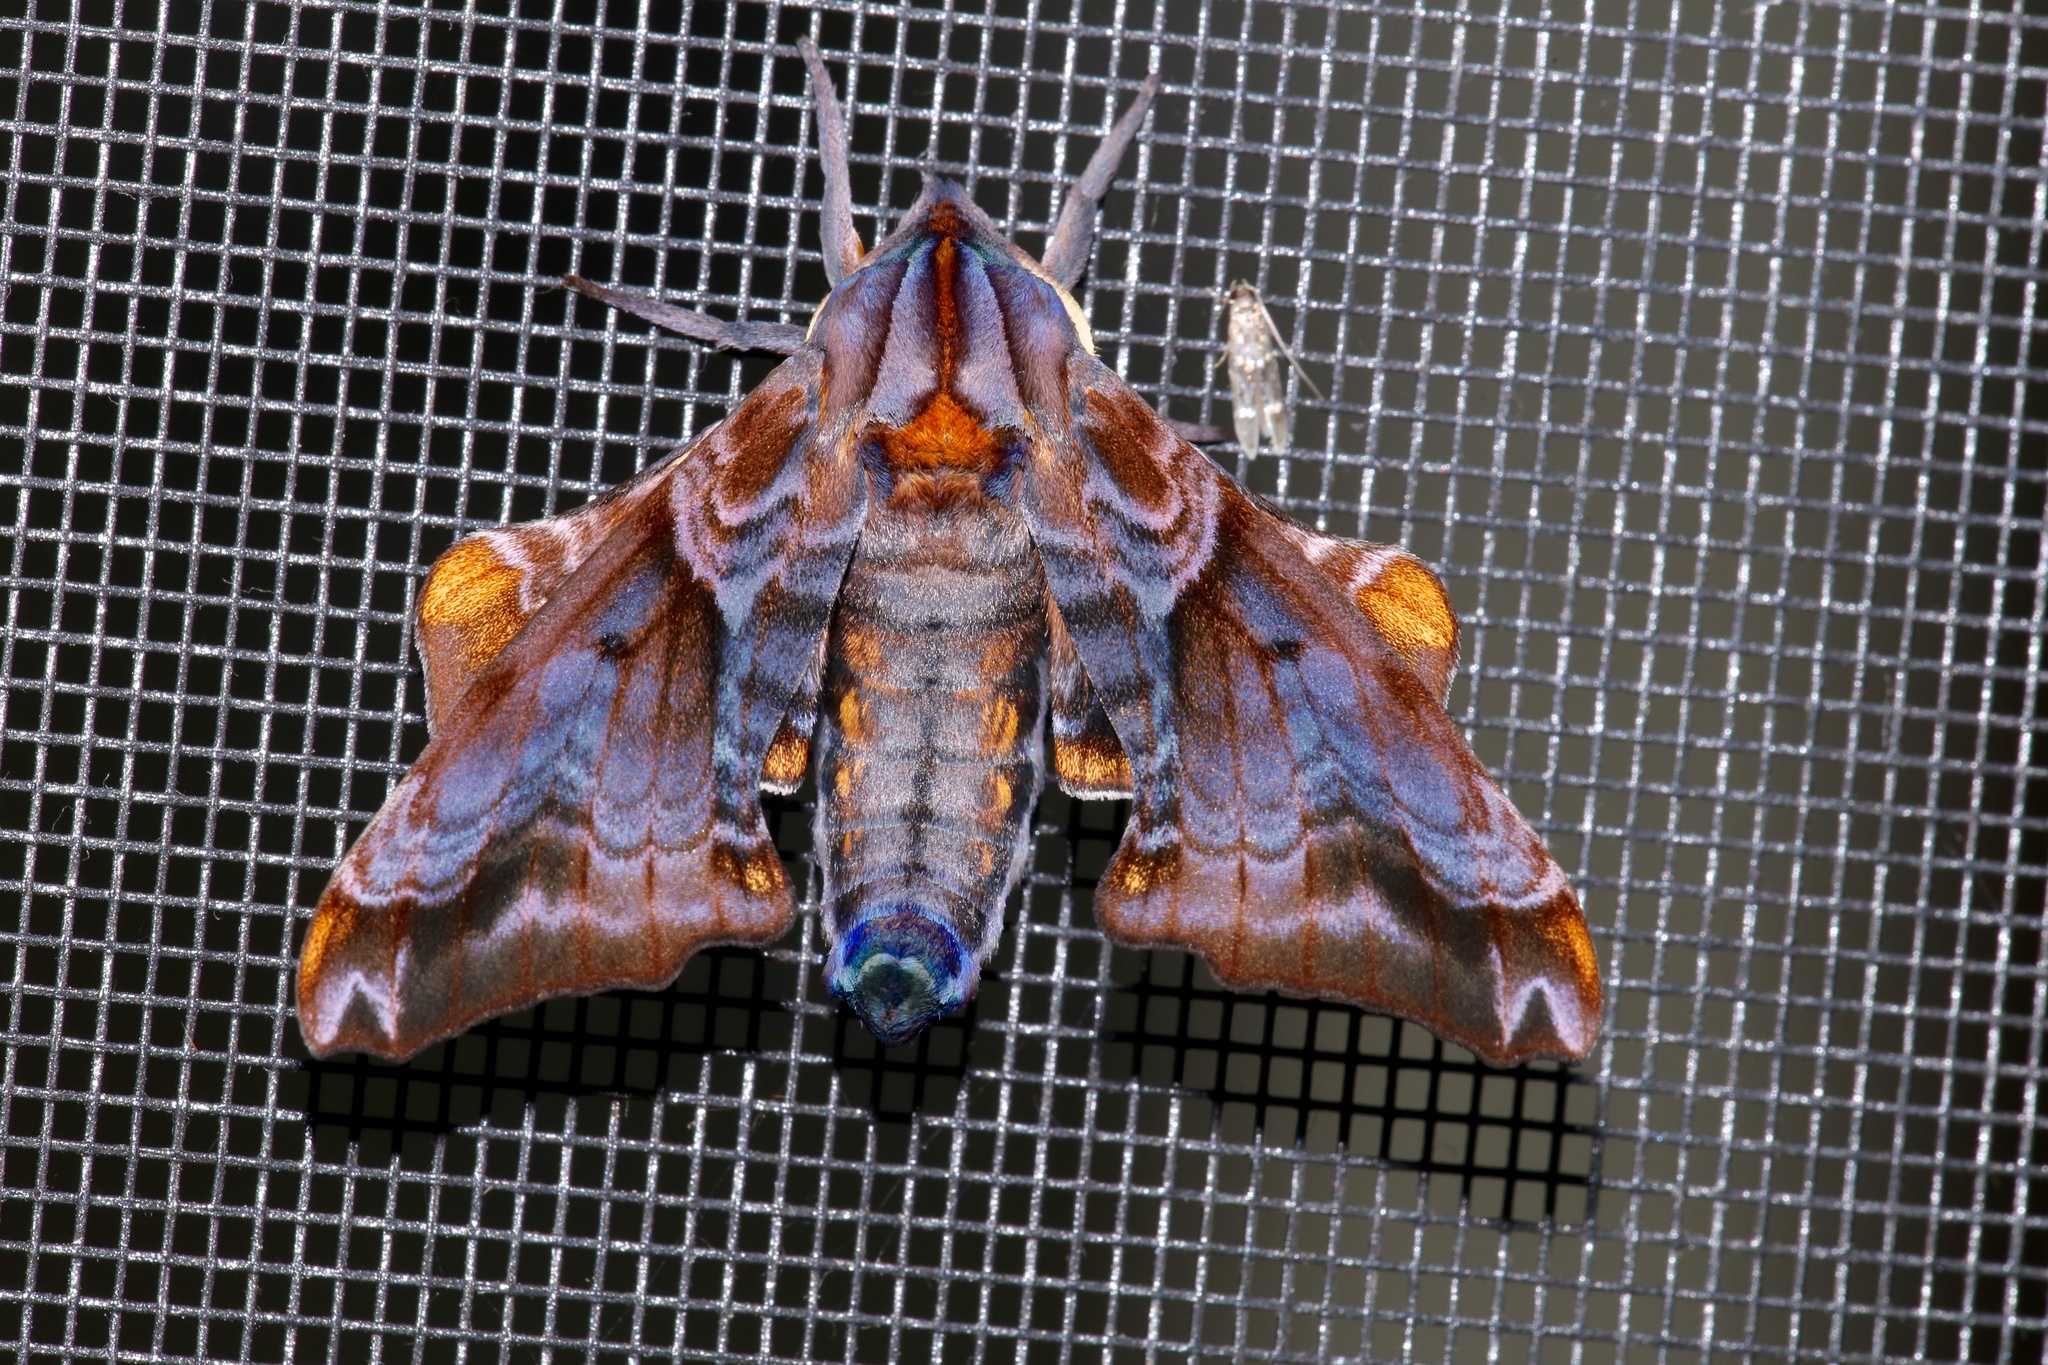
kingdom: Animalia
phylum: Arthropoda
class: Insecta
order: Lepidoptera
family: Sphingidae
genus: Paonias
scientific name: Paonias myops
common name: Small-eyed sphinx
